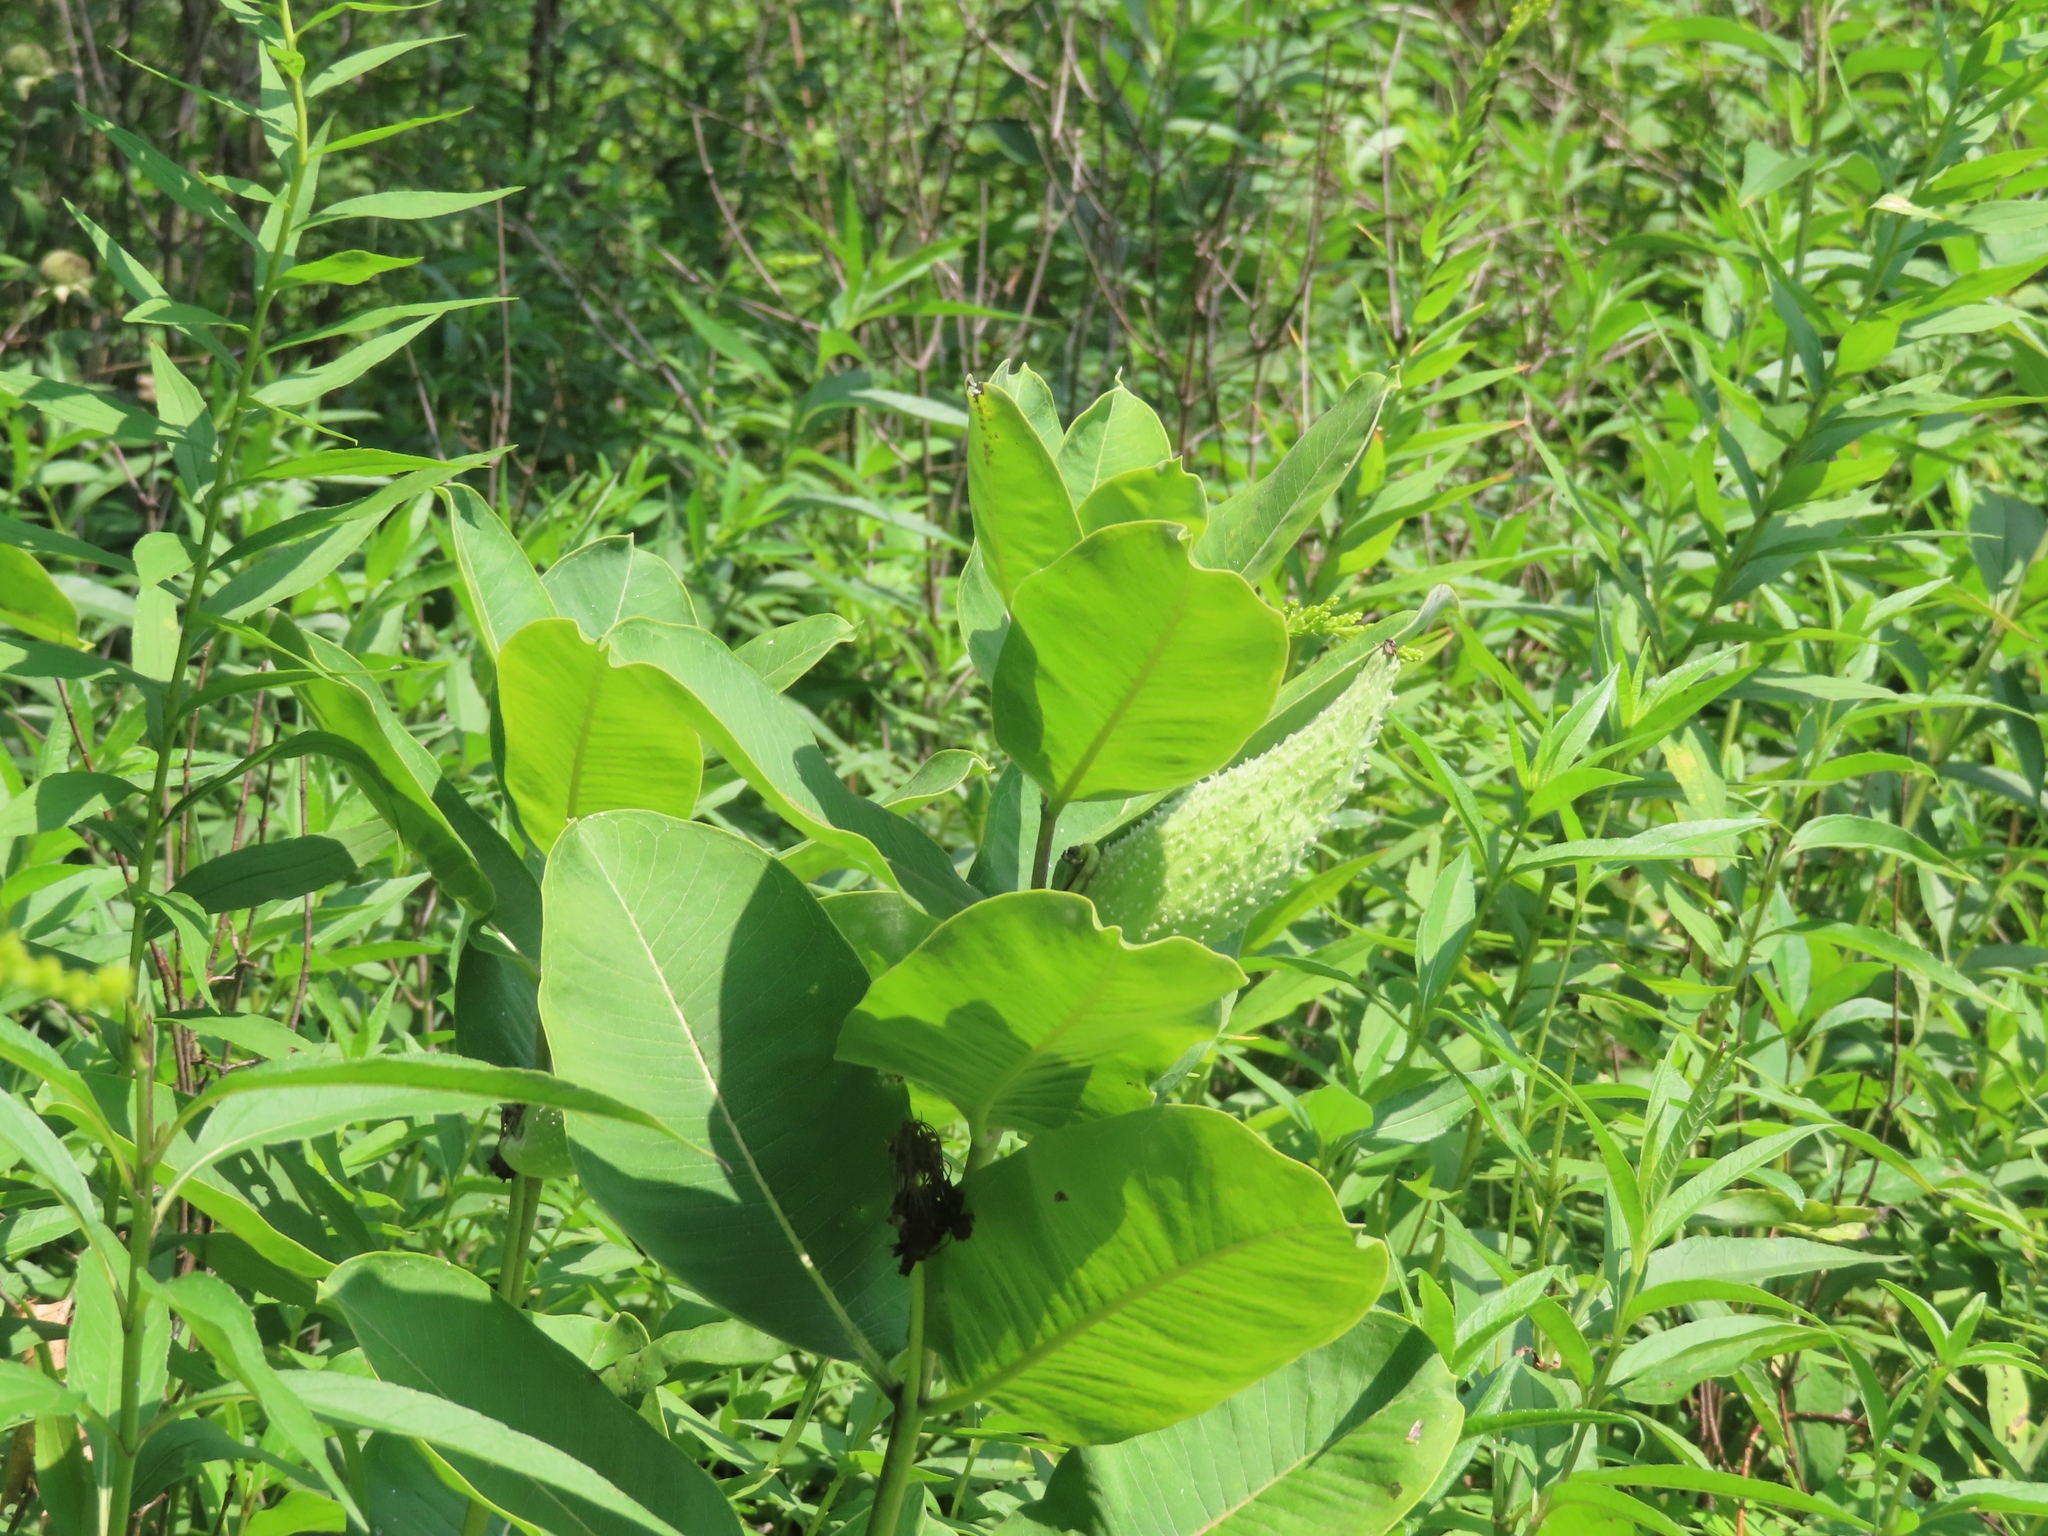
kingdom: Plantae
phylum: Tracheophyta
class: Magnoliopsida
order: Gentianales
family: Apocynaceae
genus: Asclepias
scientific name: Asclepias syriaca
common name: Common milkweed
